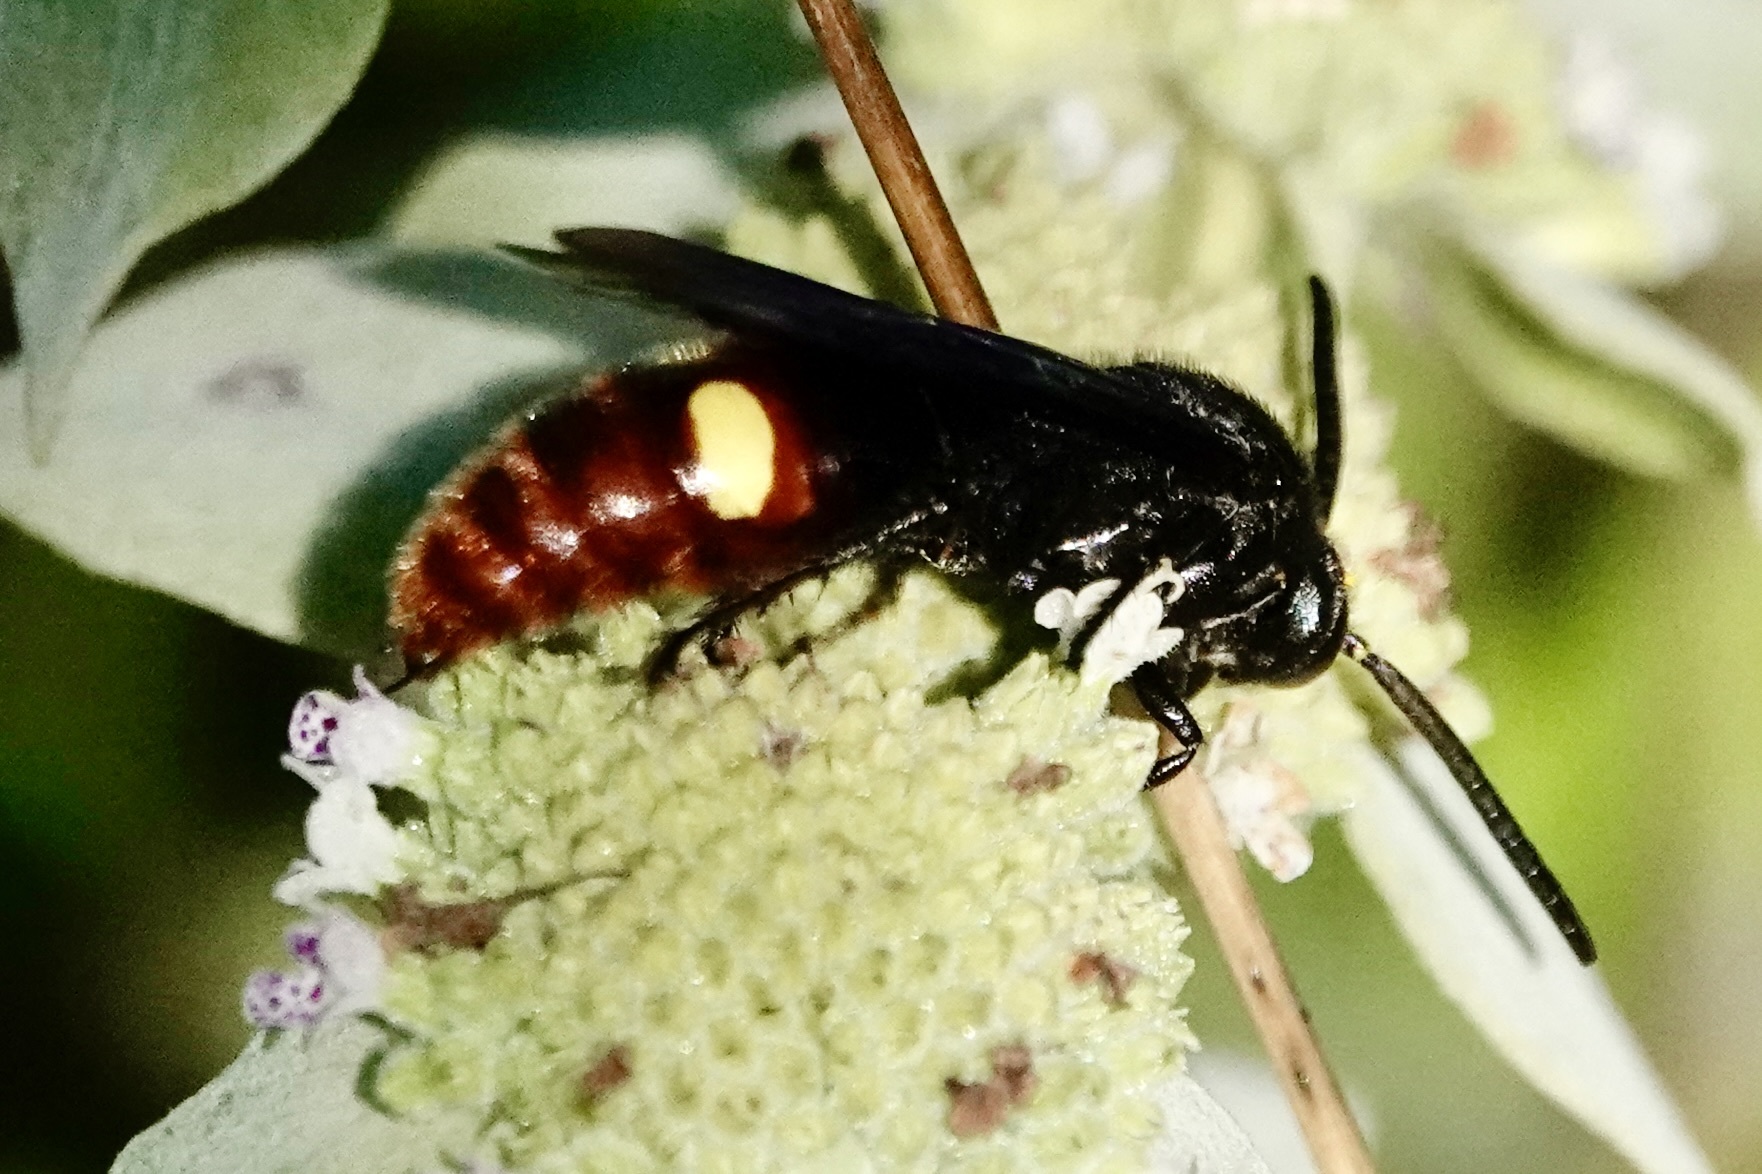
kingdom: Animalia
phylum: Arthropoda
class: Insecta
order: Hymenoptera
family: Scoliidae
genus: Scolia
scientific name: Scolia dubia
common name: Blue-winged scoliid wasp
